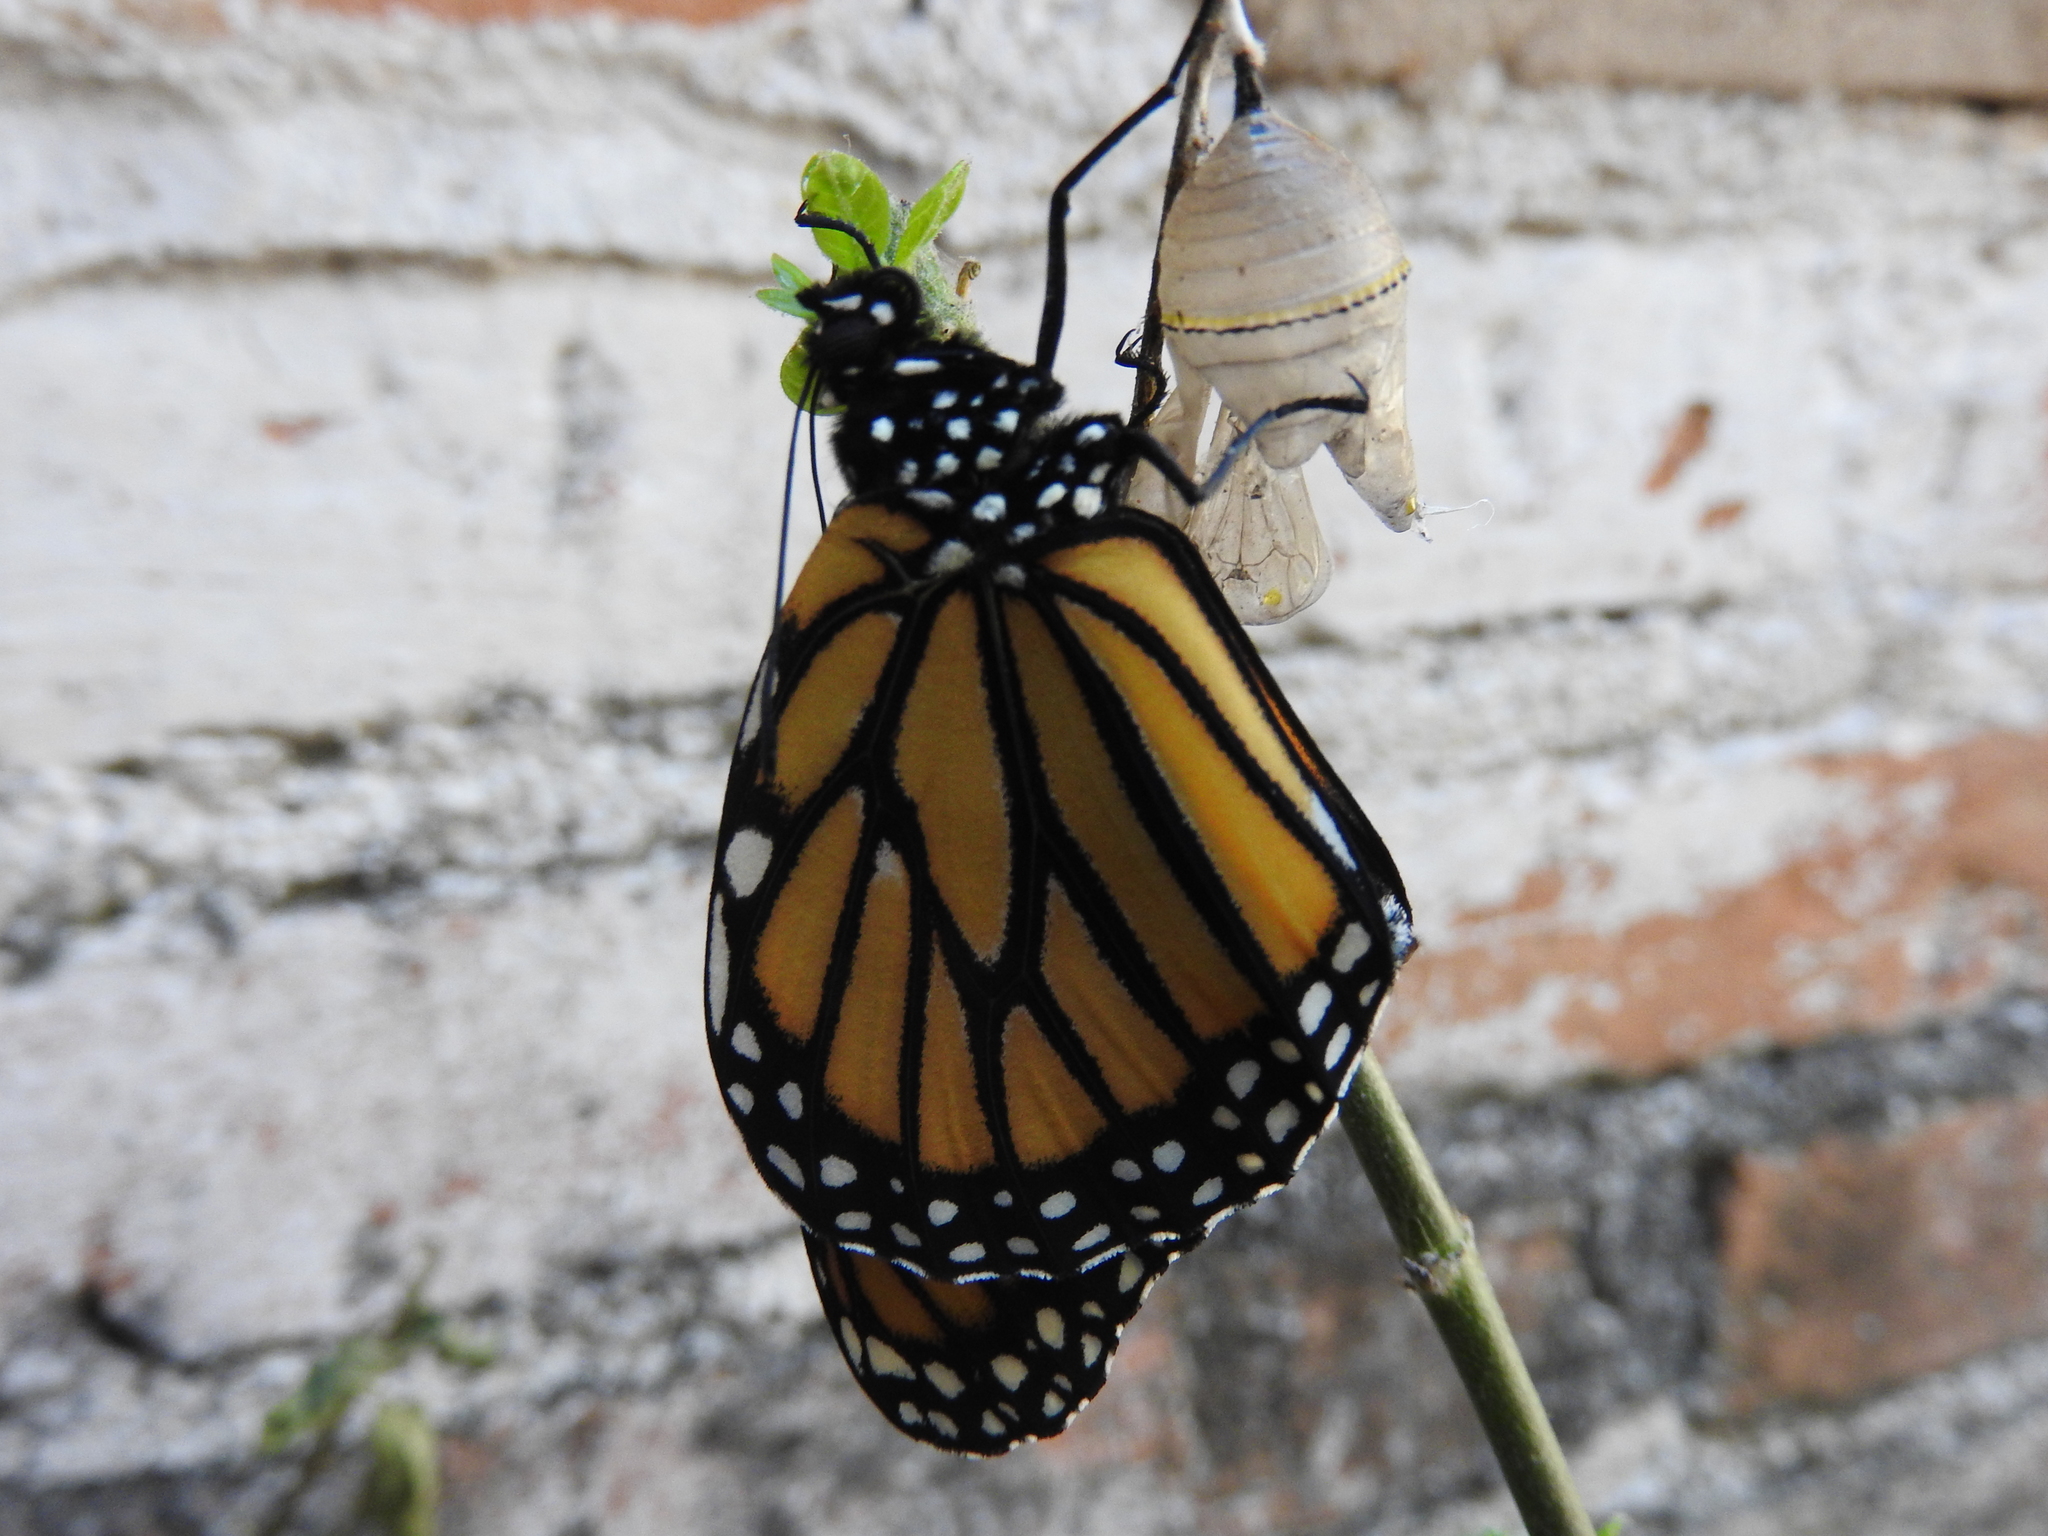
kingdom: Animalia
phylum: Arthropoda
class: Insecta
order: Lepidoptera
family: Nymphalidae
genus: Danaus
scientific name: Danaus plexippus
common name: Monarch
